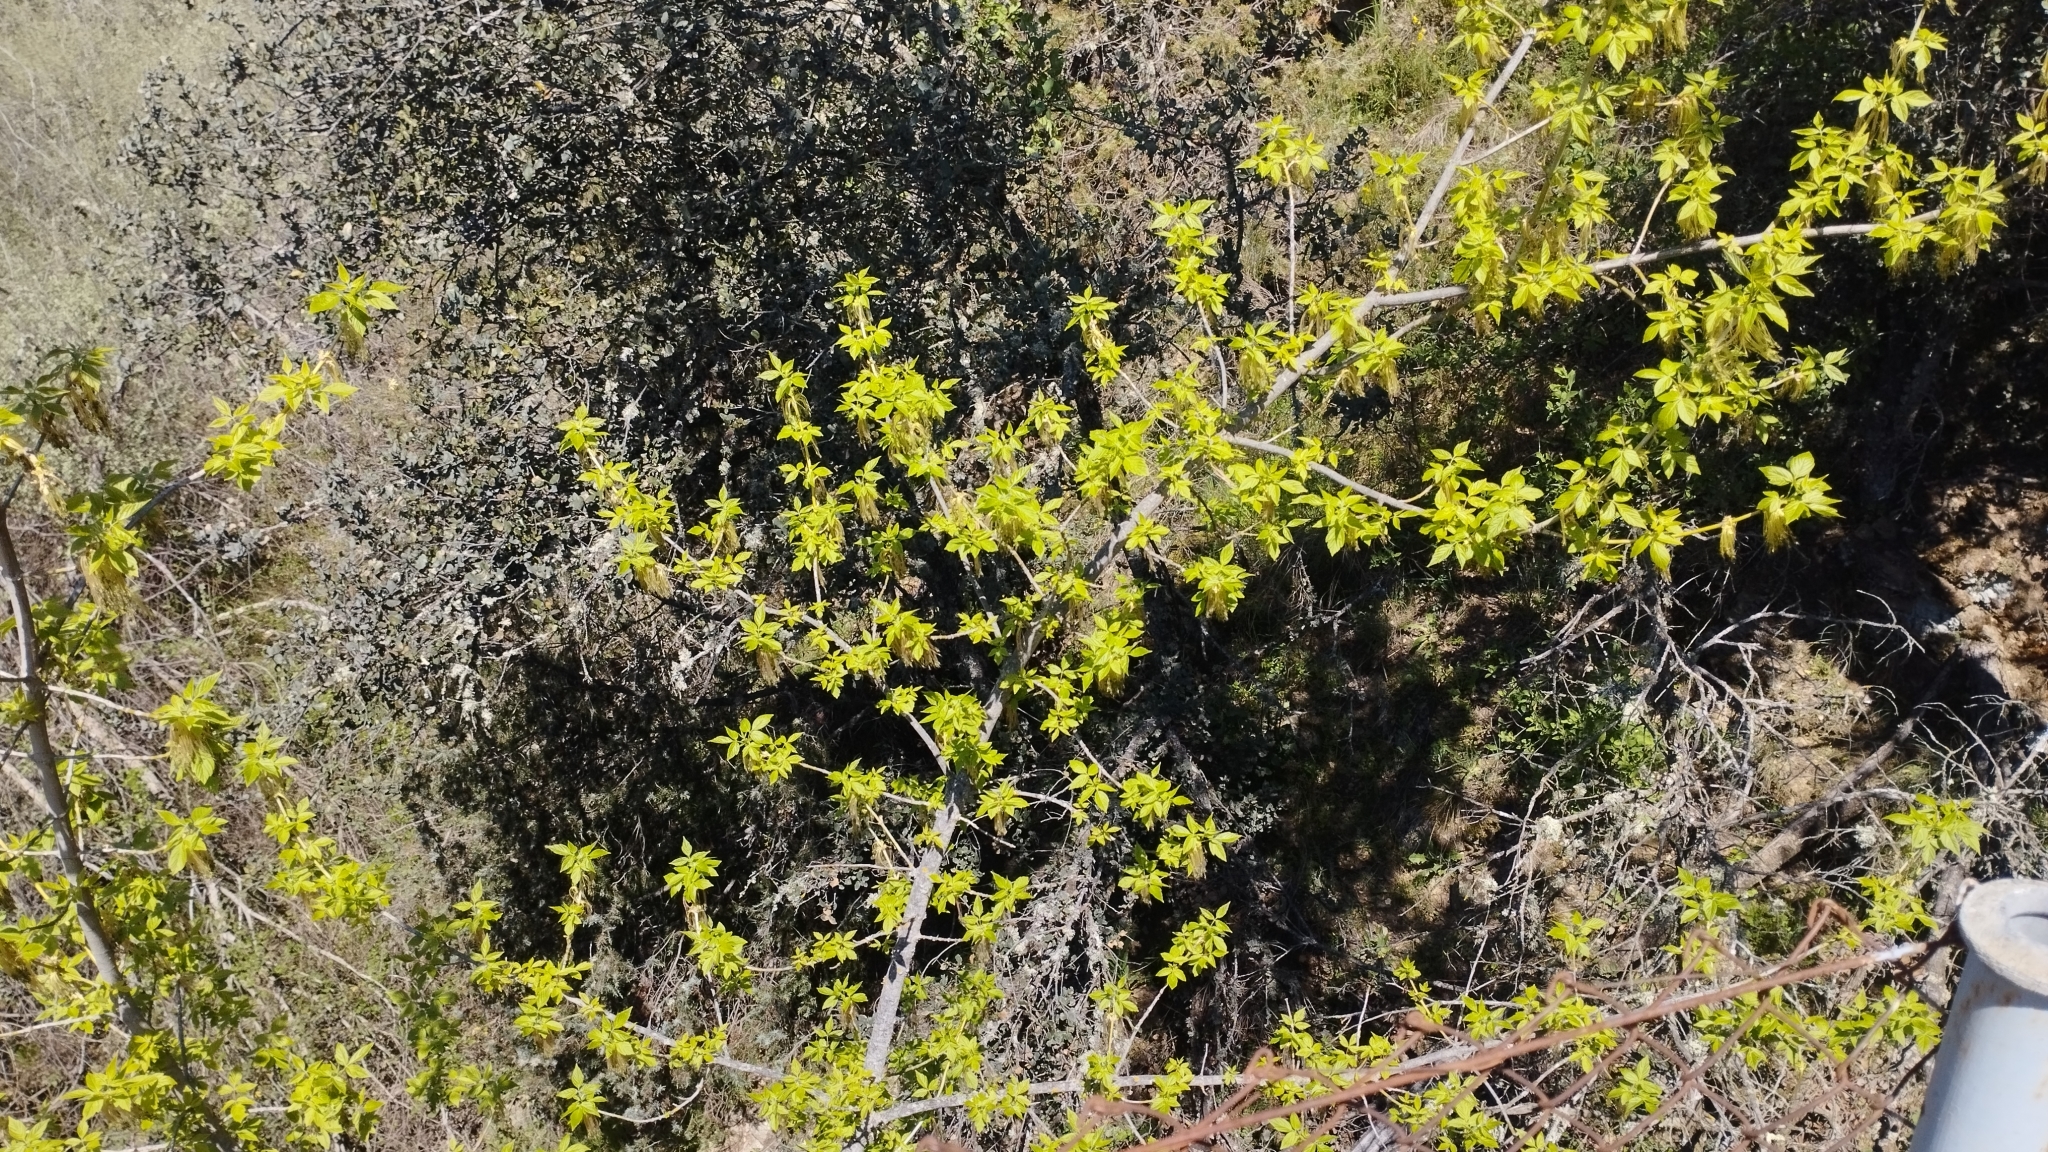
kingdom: Plantae
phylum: Tracheophyta
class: Magnoliopsida
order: Sapindales
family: Sapindaceae
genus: Acer
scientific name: Acer negundo
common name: Ashleaf maple
